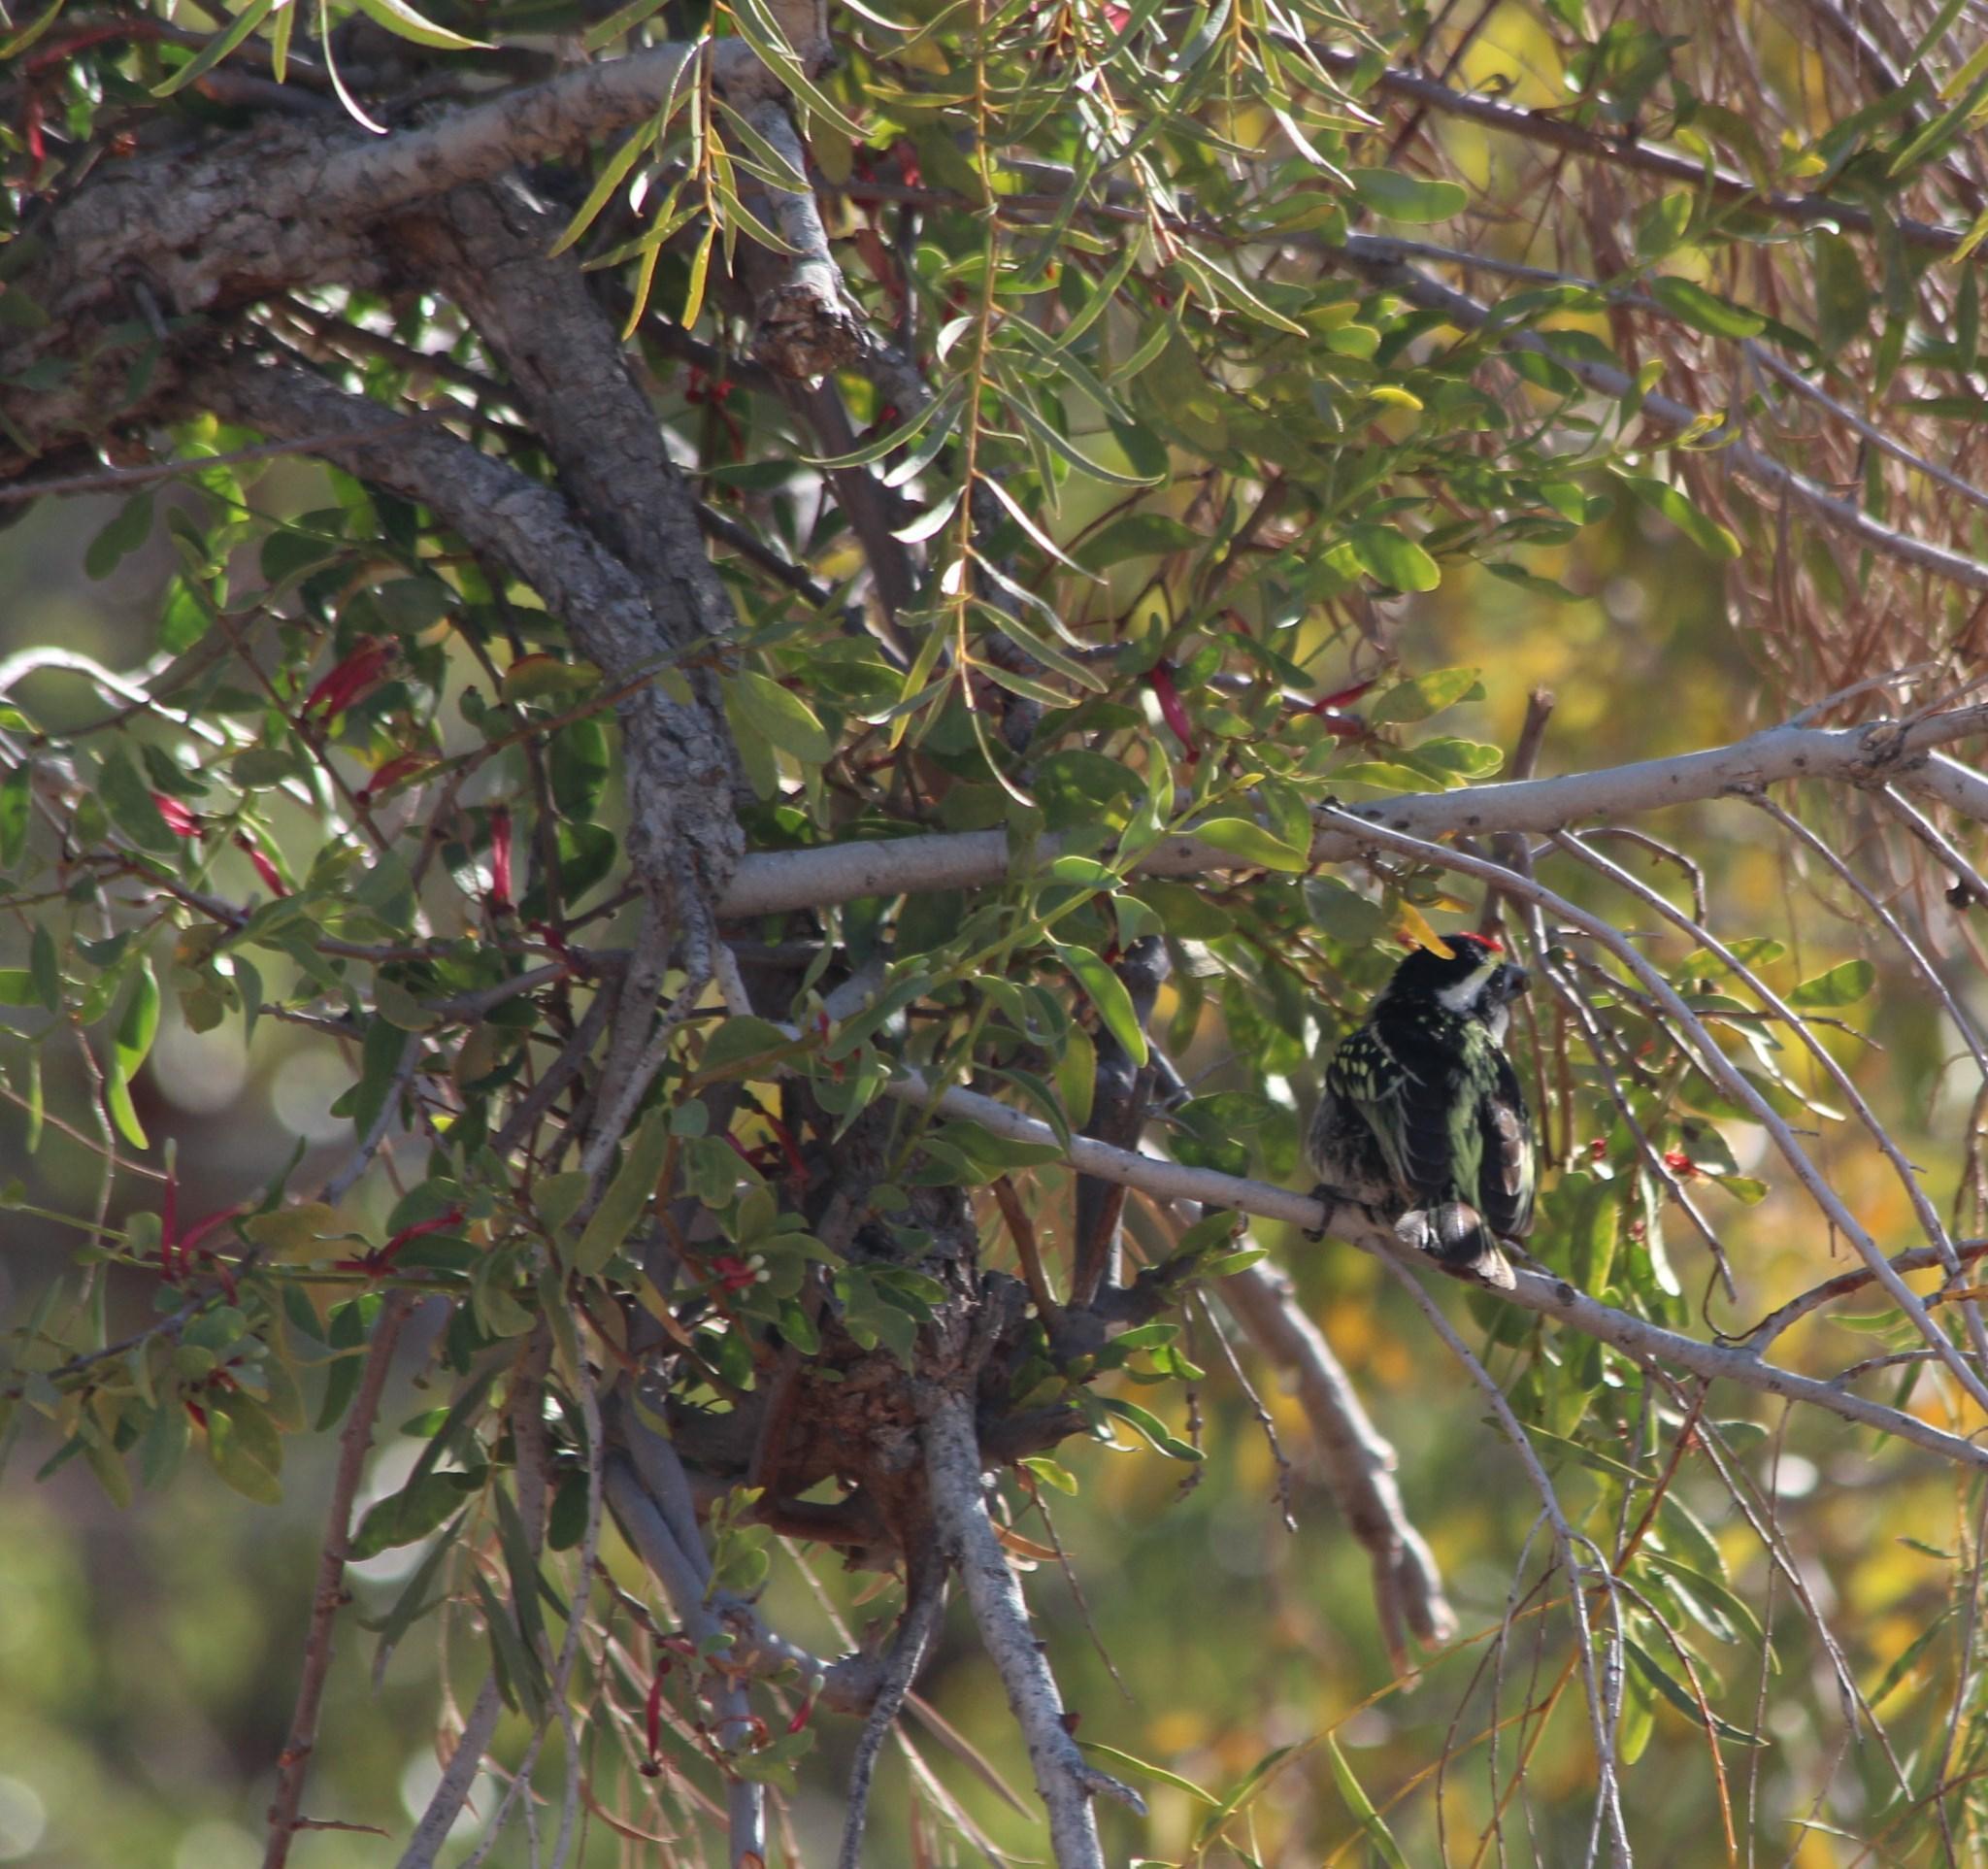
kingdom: Animalia
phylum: Chordata
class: Aves
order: Piciformes
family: Lybiidae
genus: Tricholaema
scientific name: Tricholaema leucomelas
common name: Acacia pied barbet
